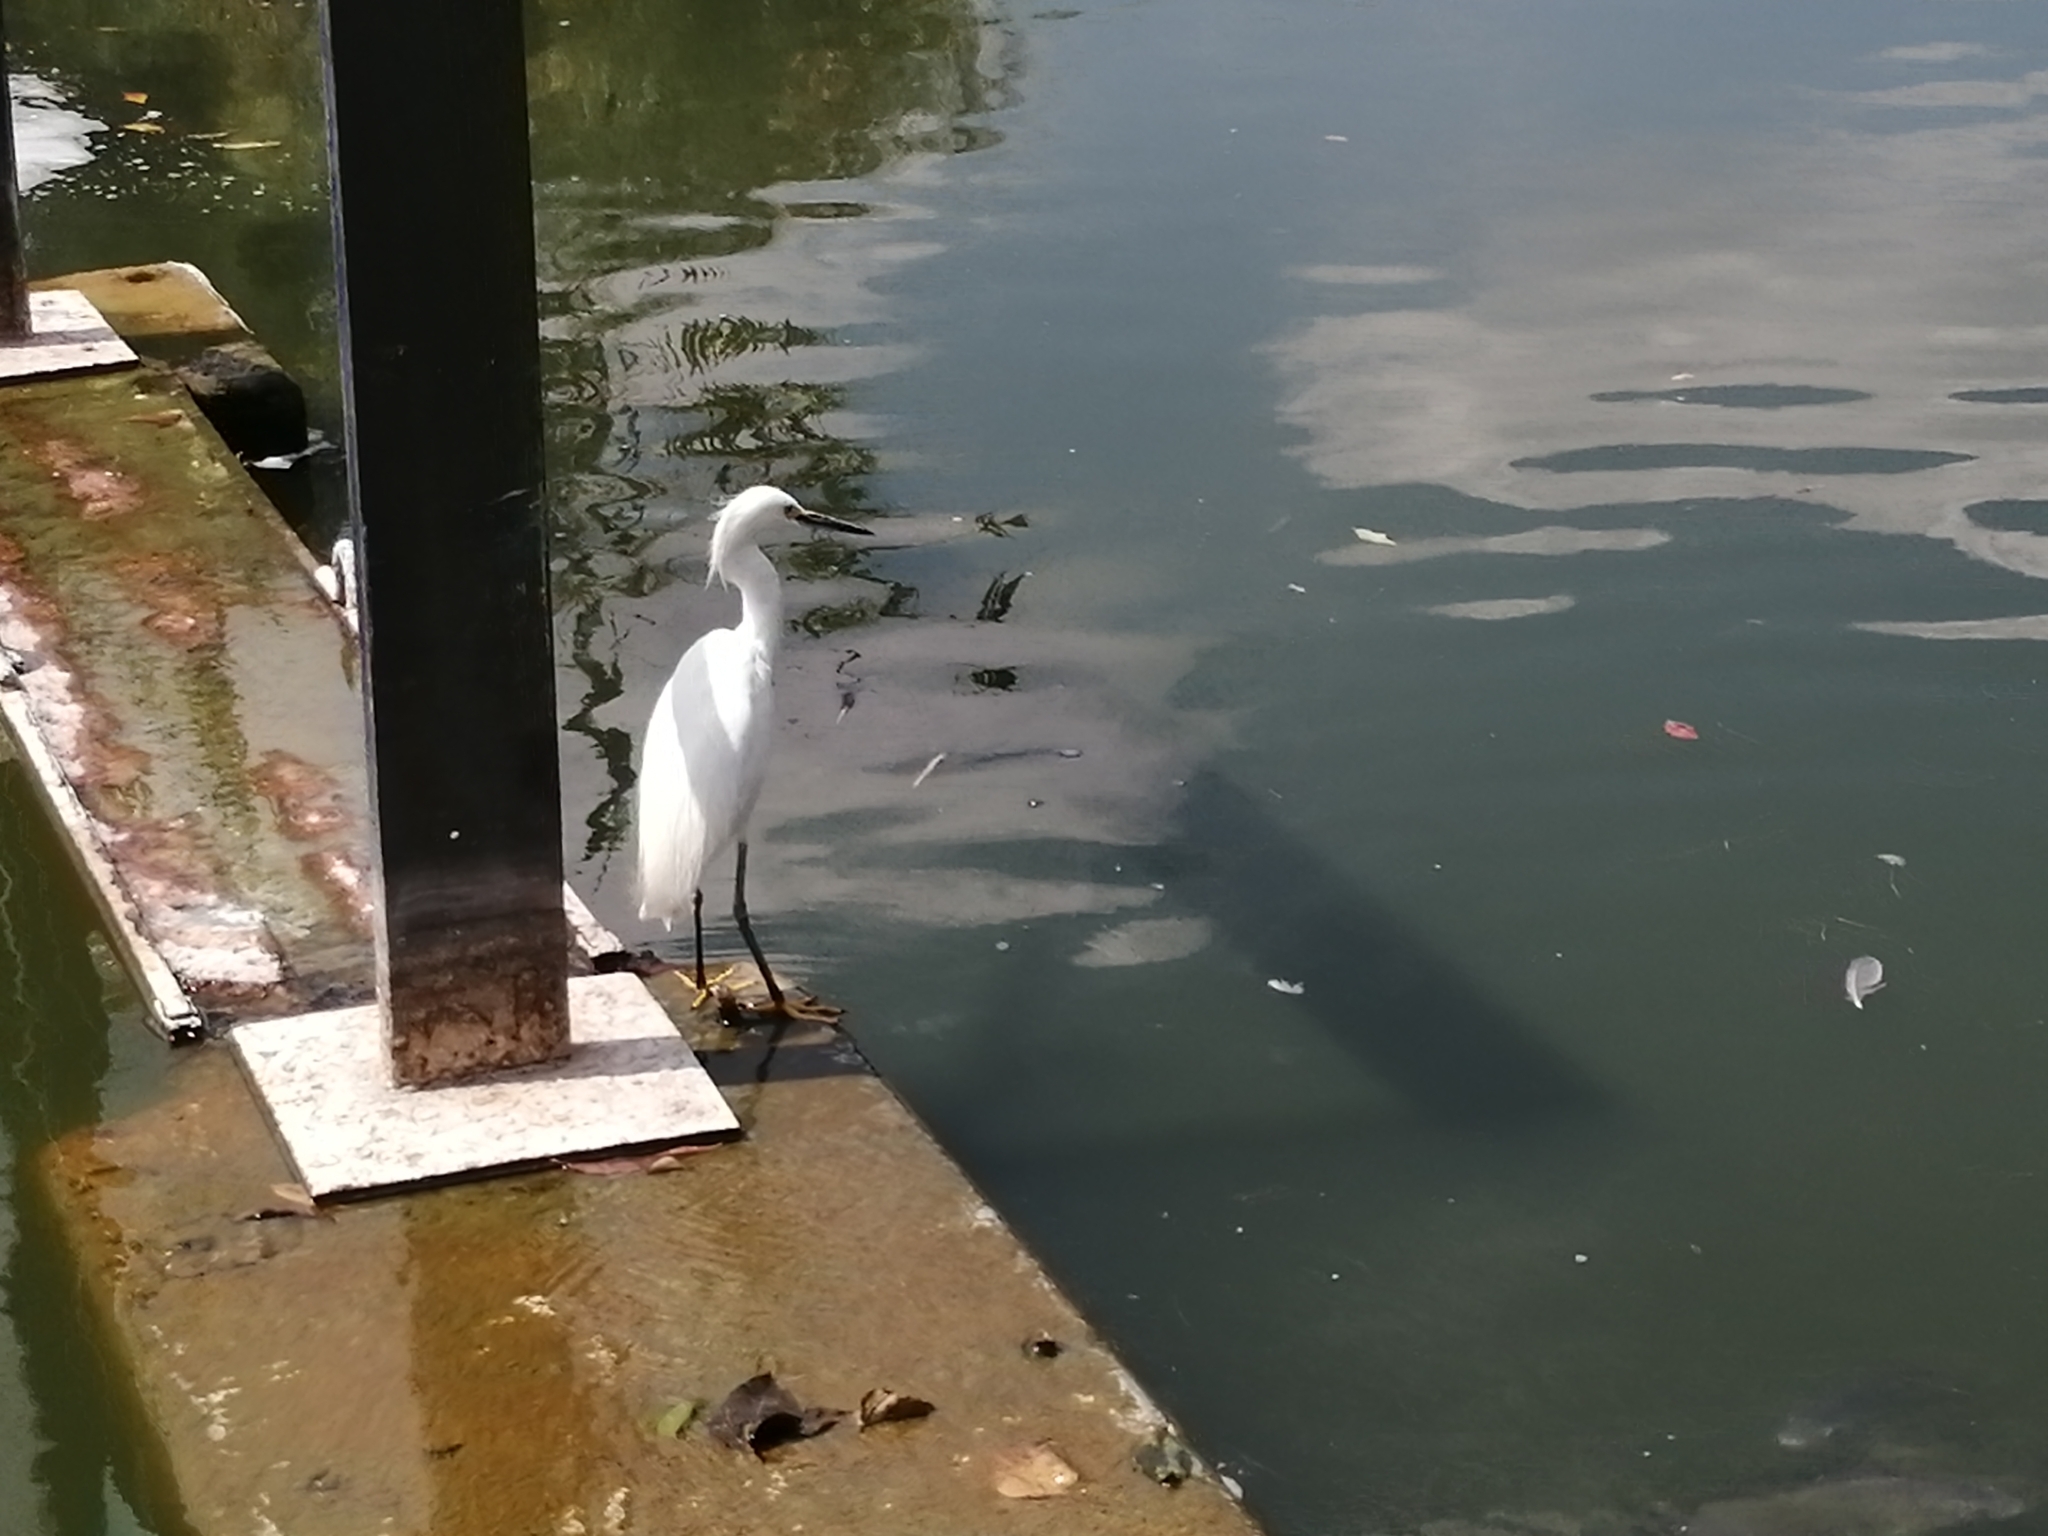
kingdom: Animalia
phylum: Chordata
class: Aves
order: Pelecaniformes
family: Ardeidae
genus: Egretta
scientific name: Egretta thula
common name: Snowy egret
